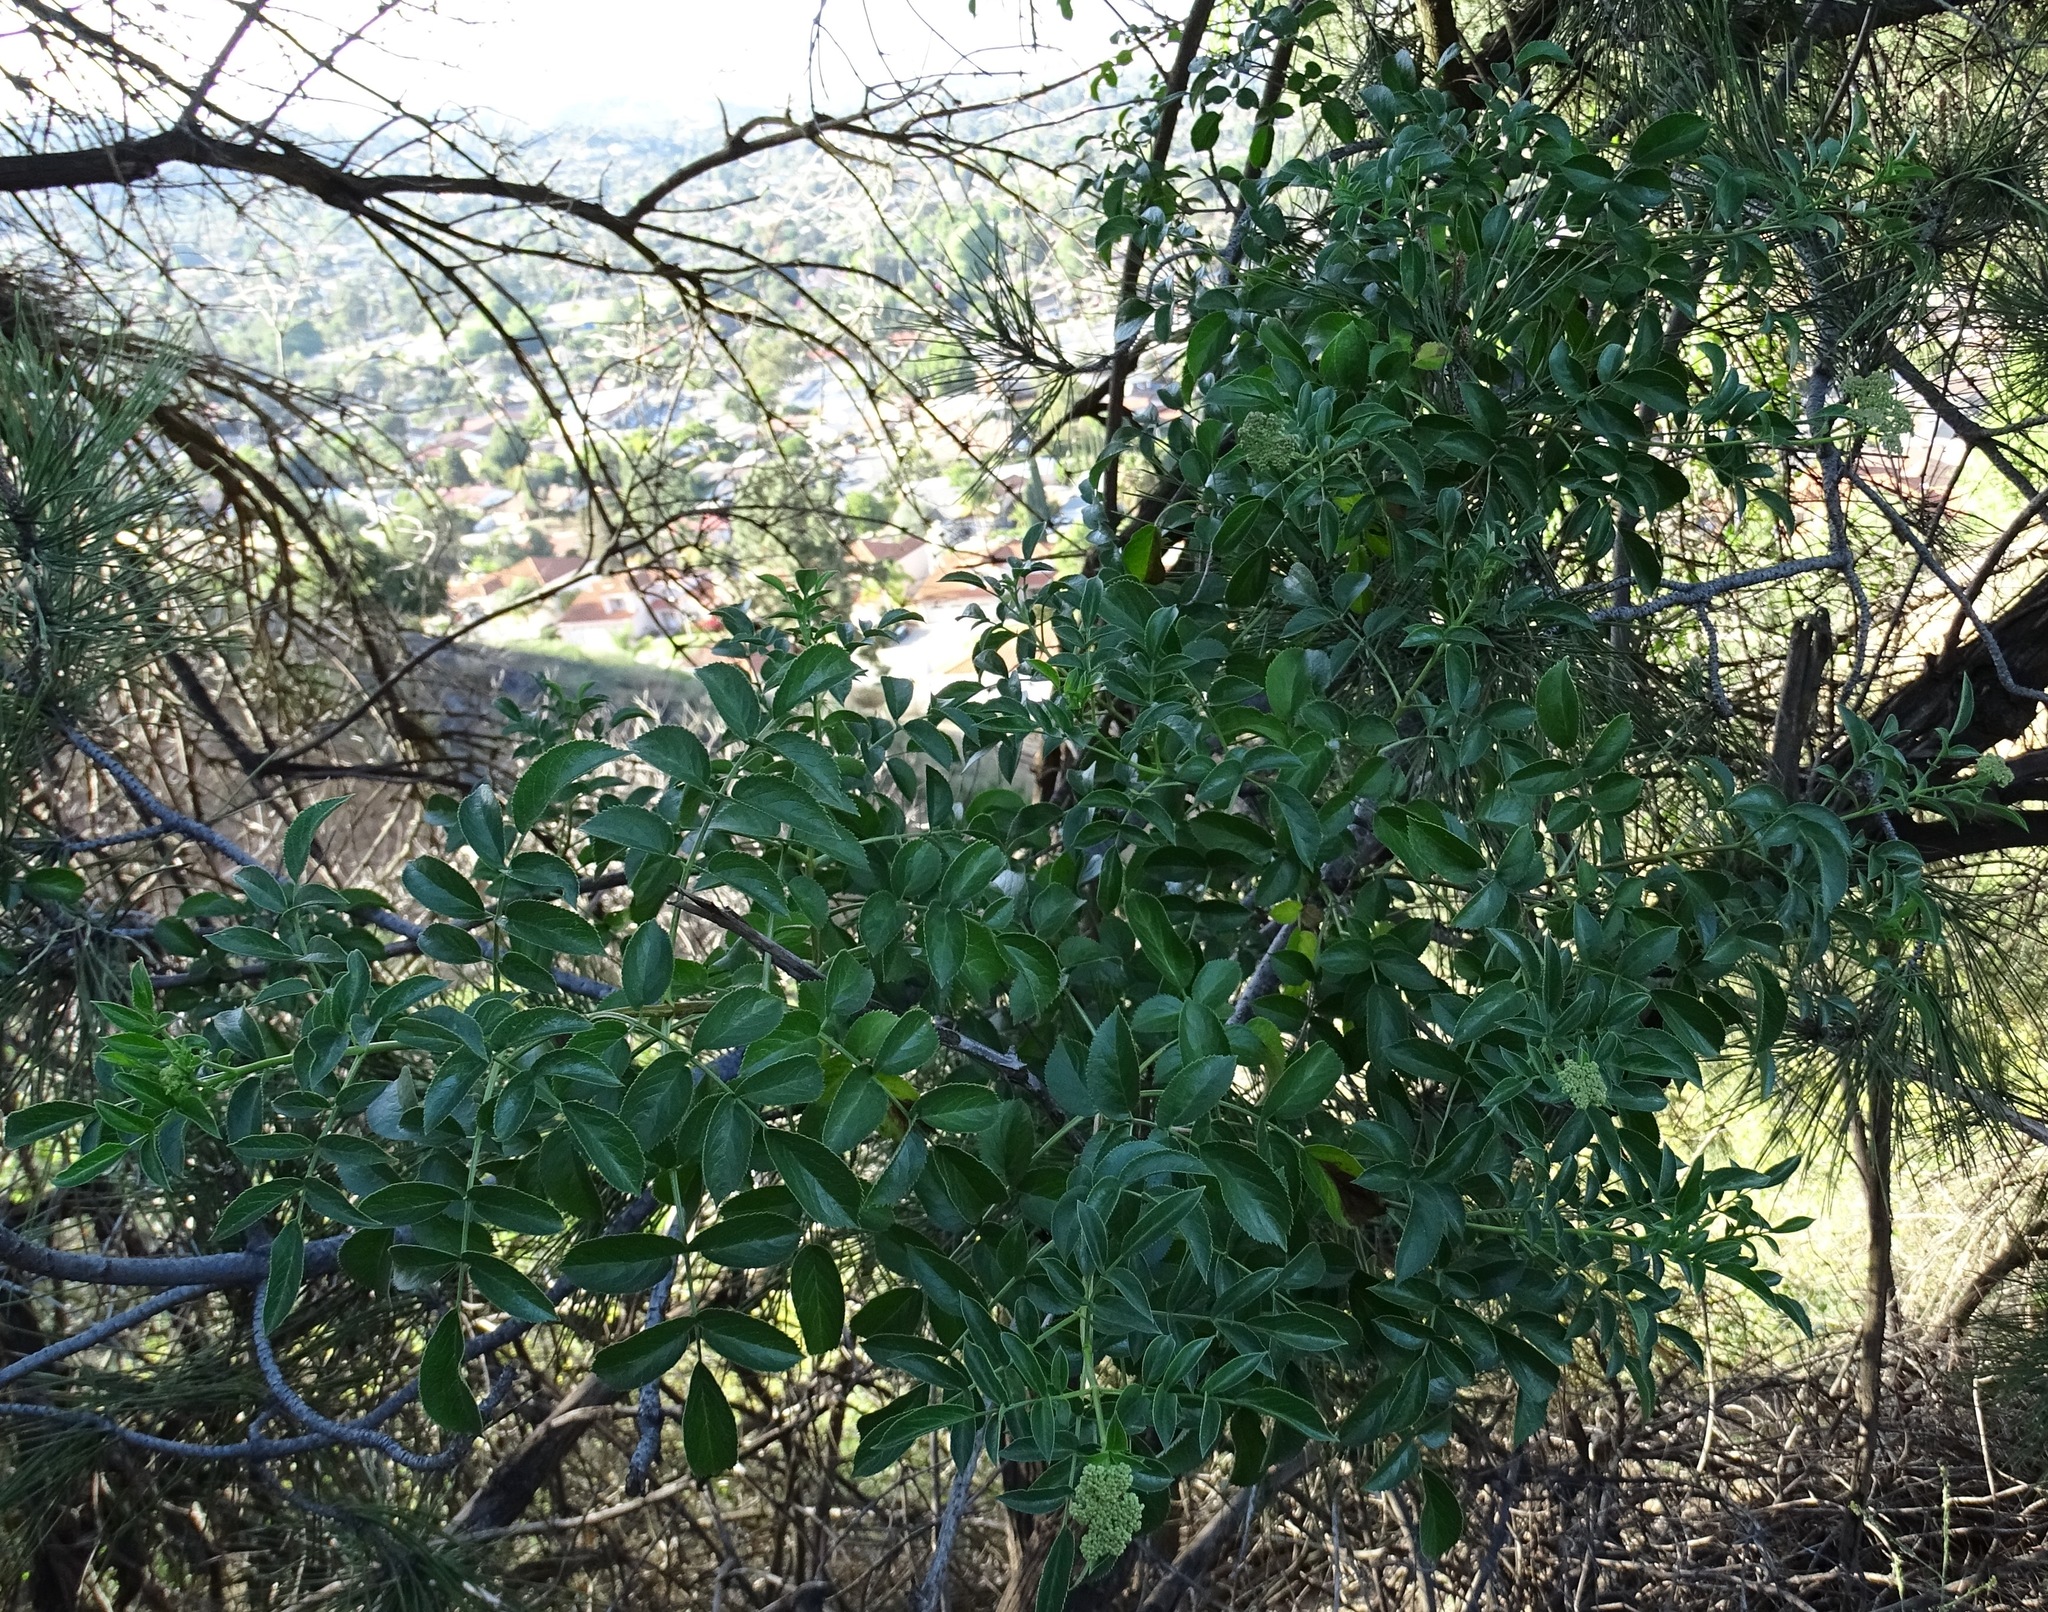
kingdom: Plantae
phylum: Tracheophyta
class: Magnoliopsida
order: Dipsacales
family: Viburnaceae
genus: Sambucus
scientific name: Sambucus cerulea
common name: Blue elder
